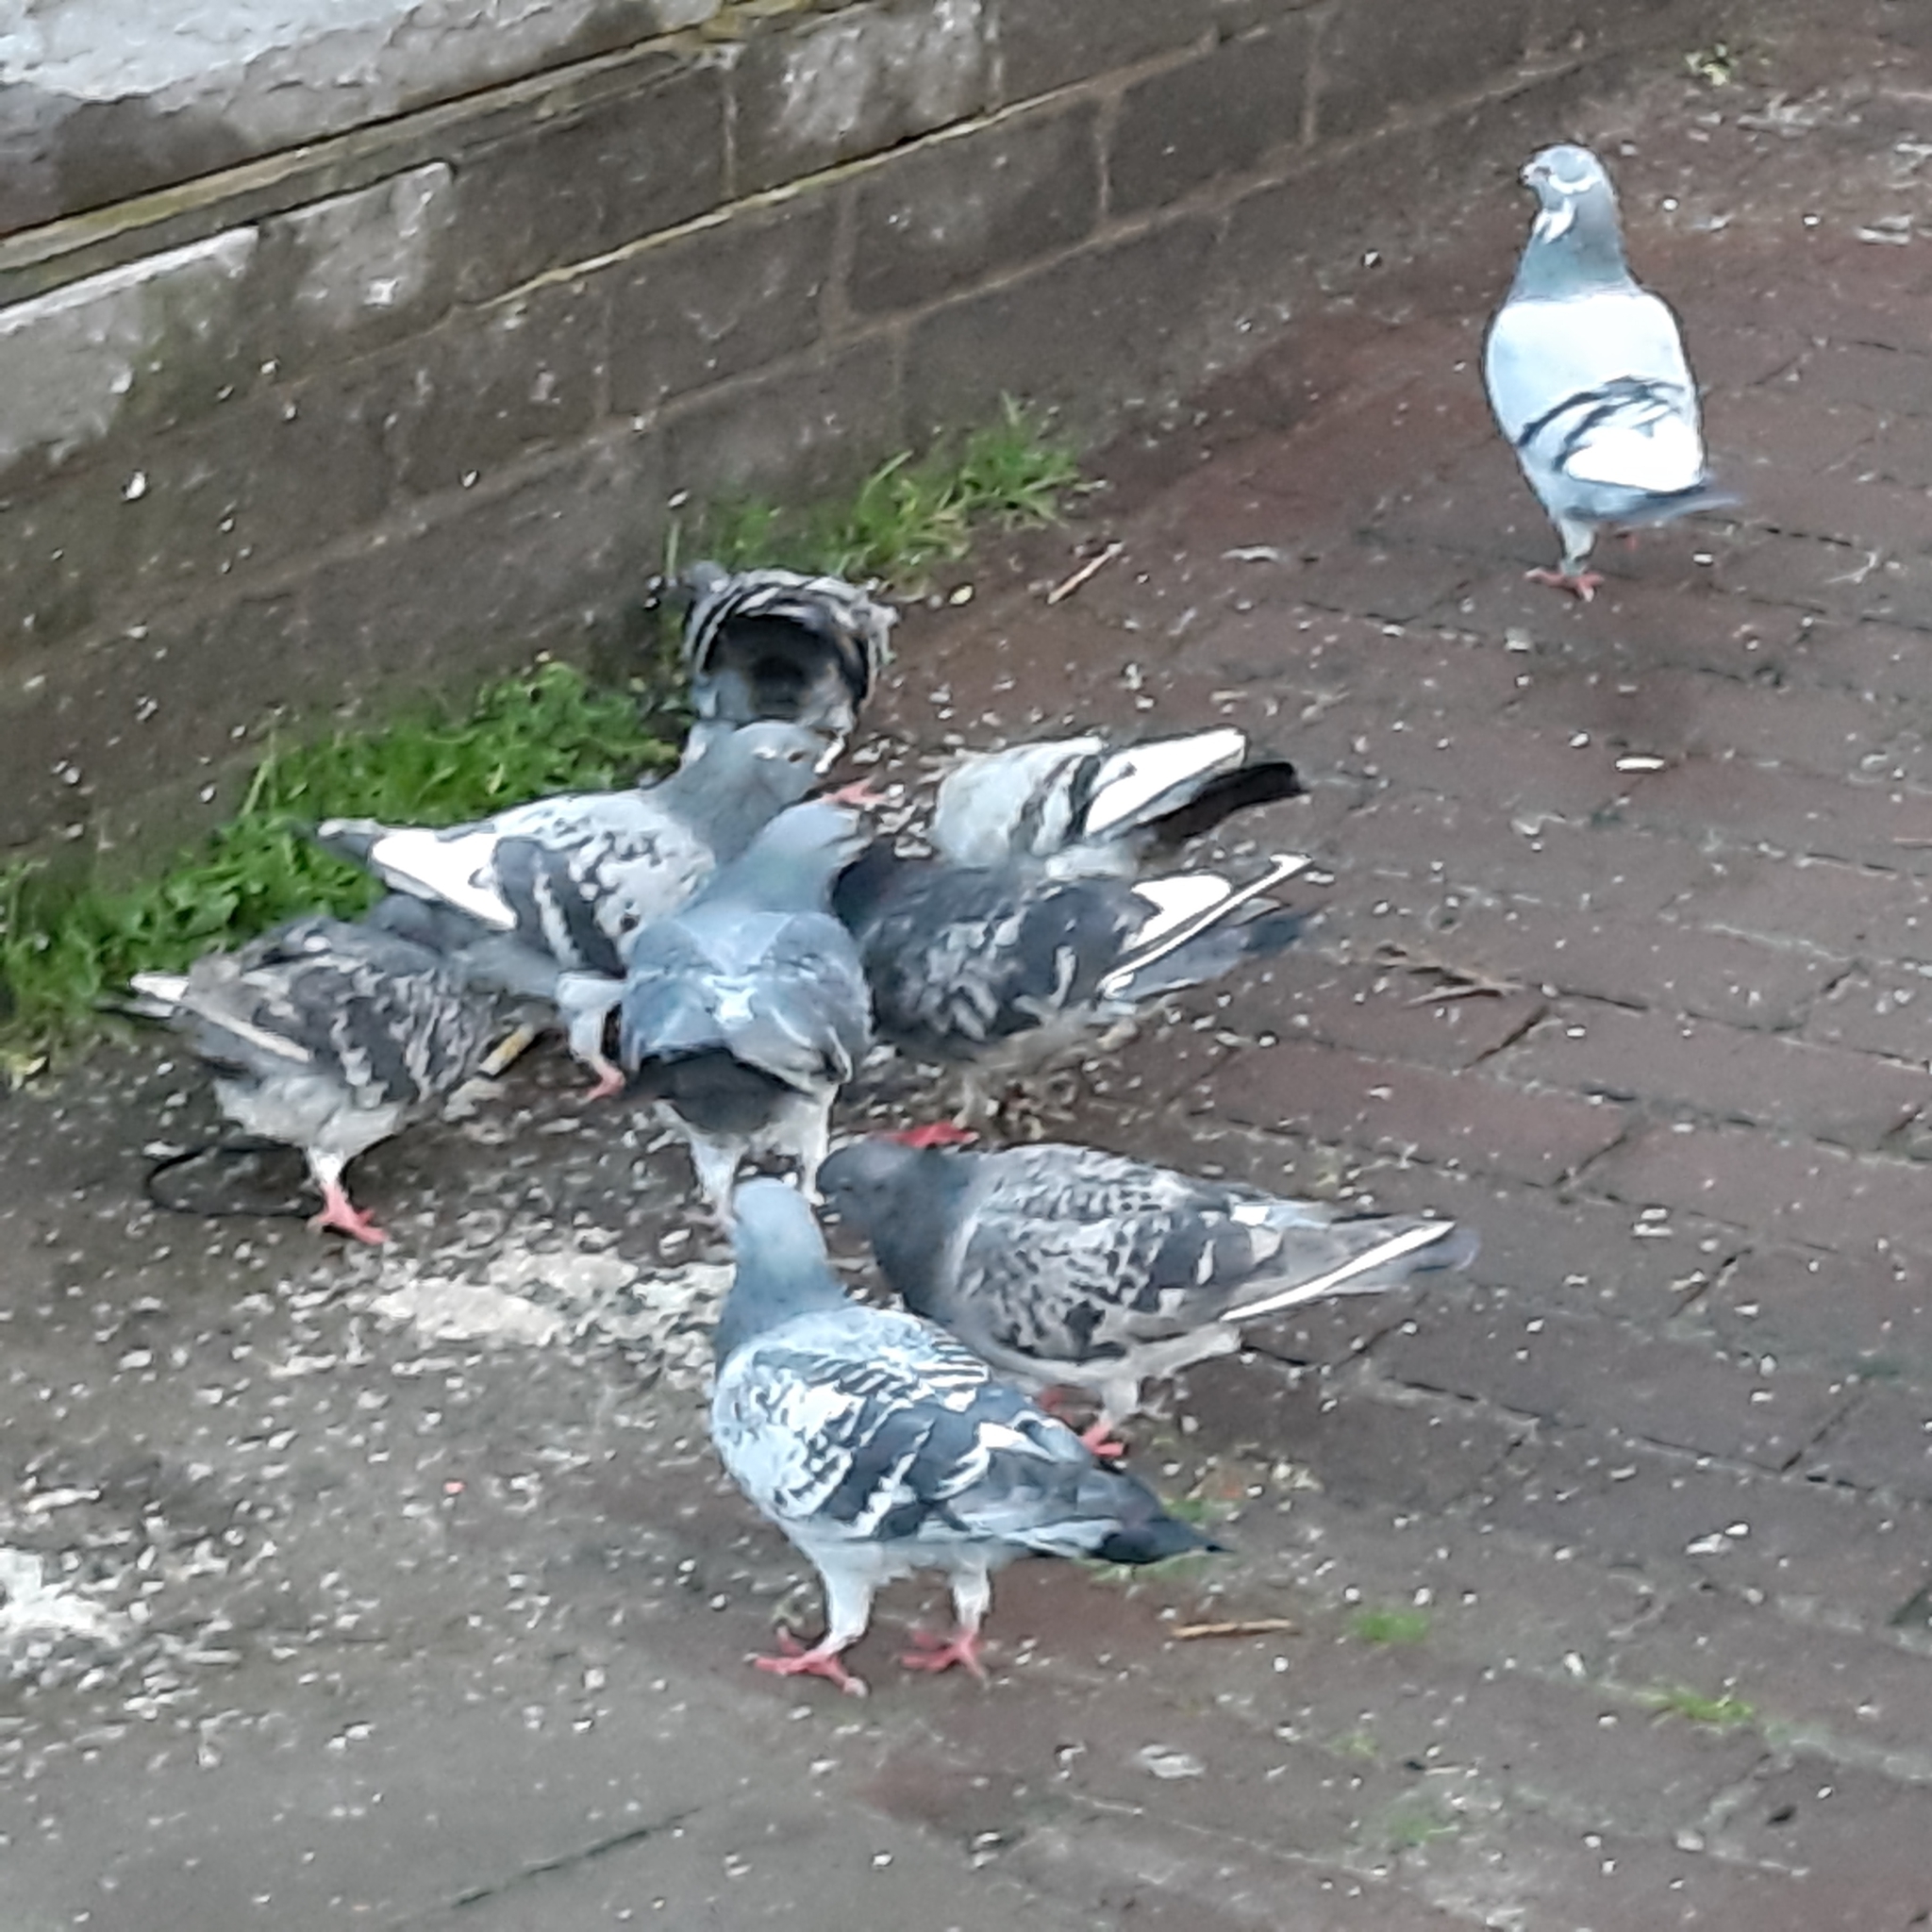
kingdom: Animalia
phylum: Chordata
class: Aves
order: Columbiformes
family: Columbidae
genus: Columba
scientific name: Columba livia
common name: Rock pigeon
